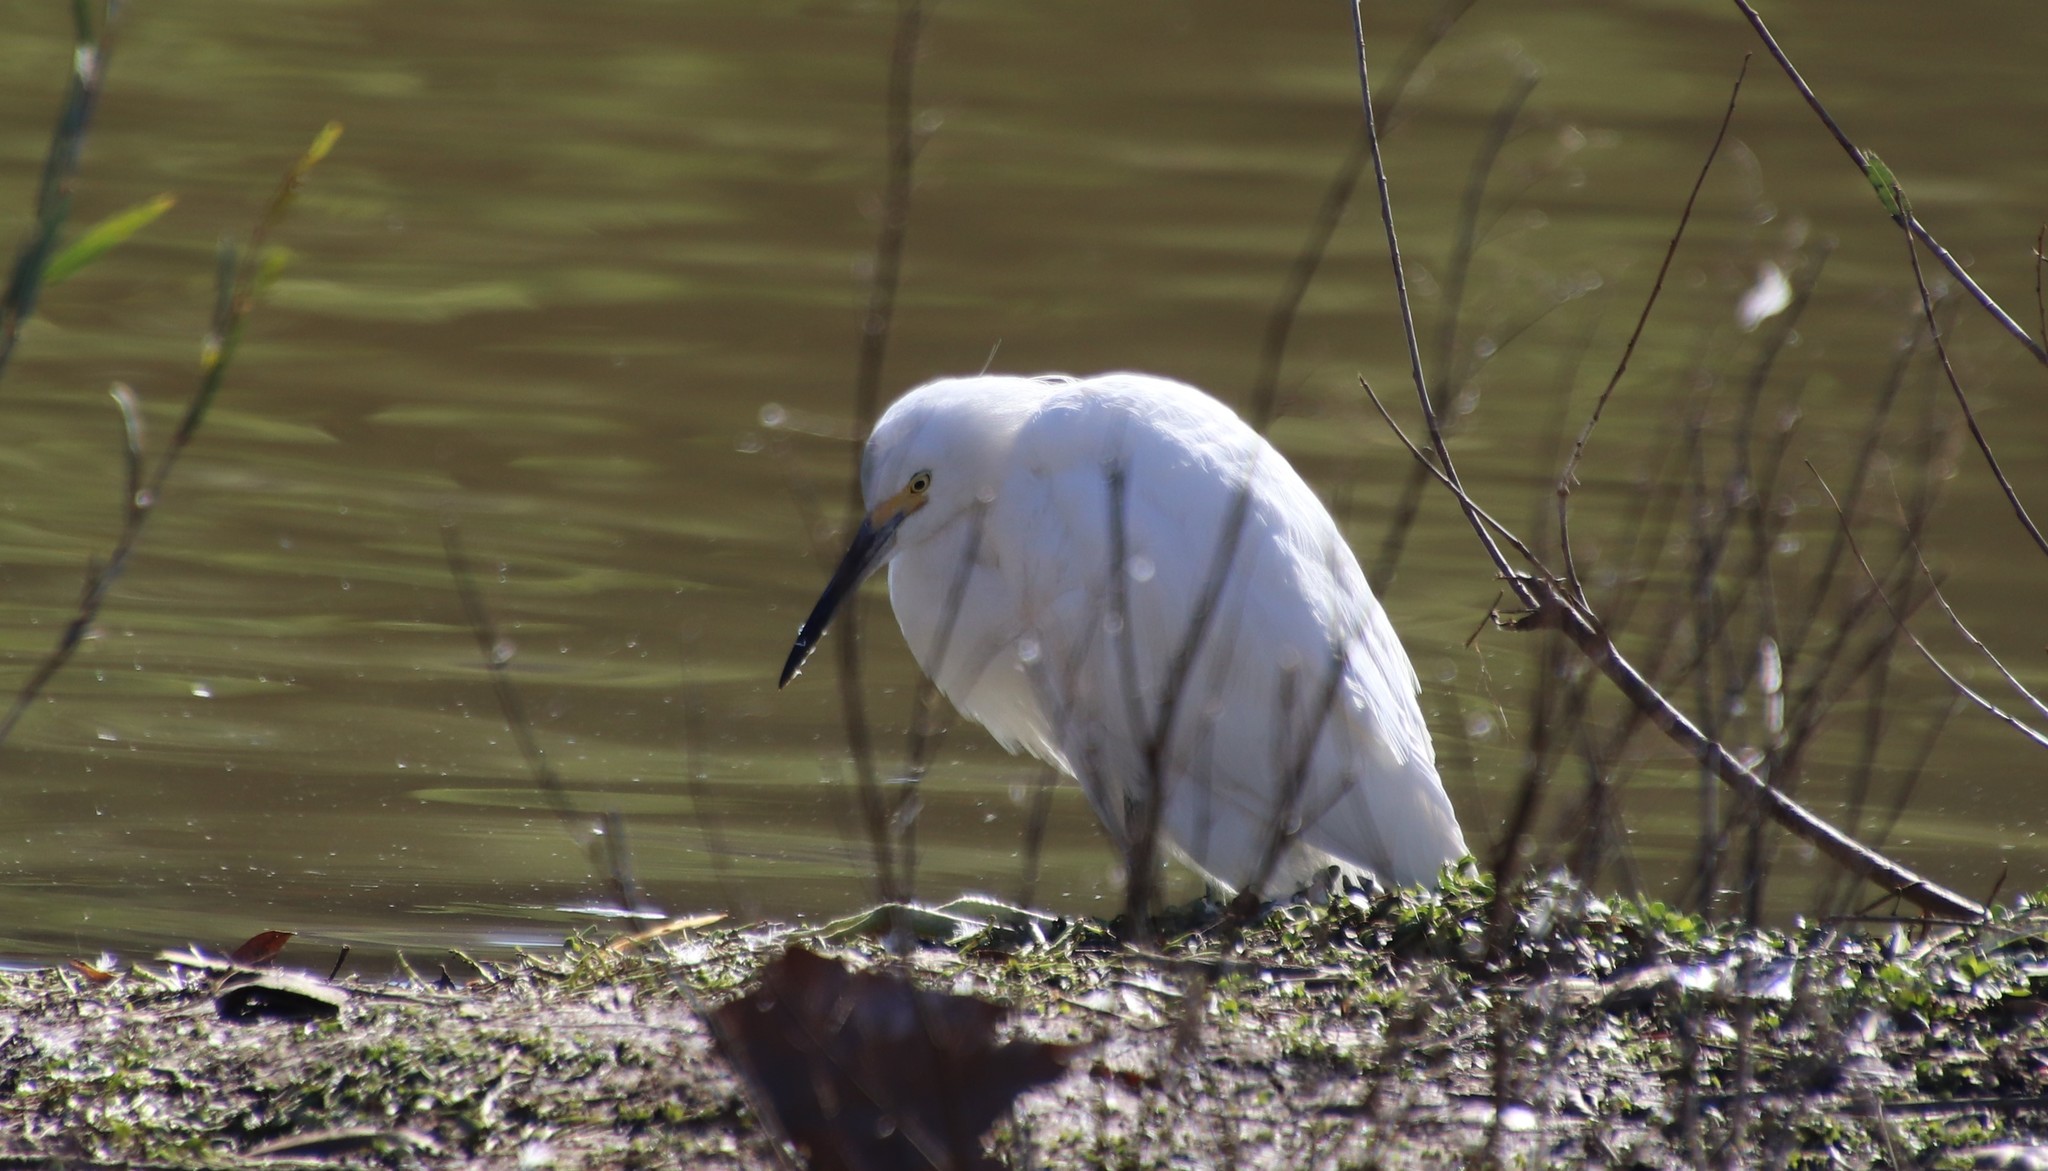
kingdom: Animalia
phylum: Chordata
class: Aves
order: Pelecaniformes
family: Ardeidae
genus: Egretta
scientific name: Egretta thula
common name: Snowy egret
